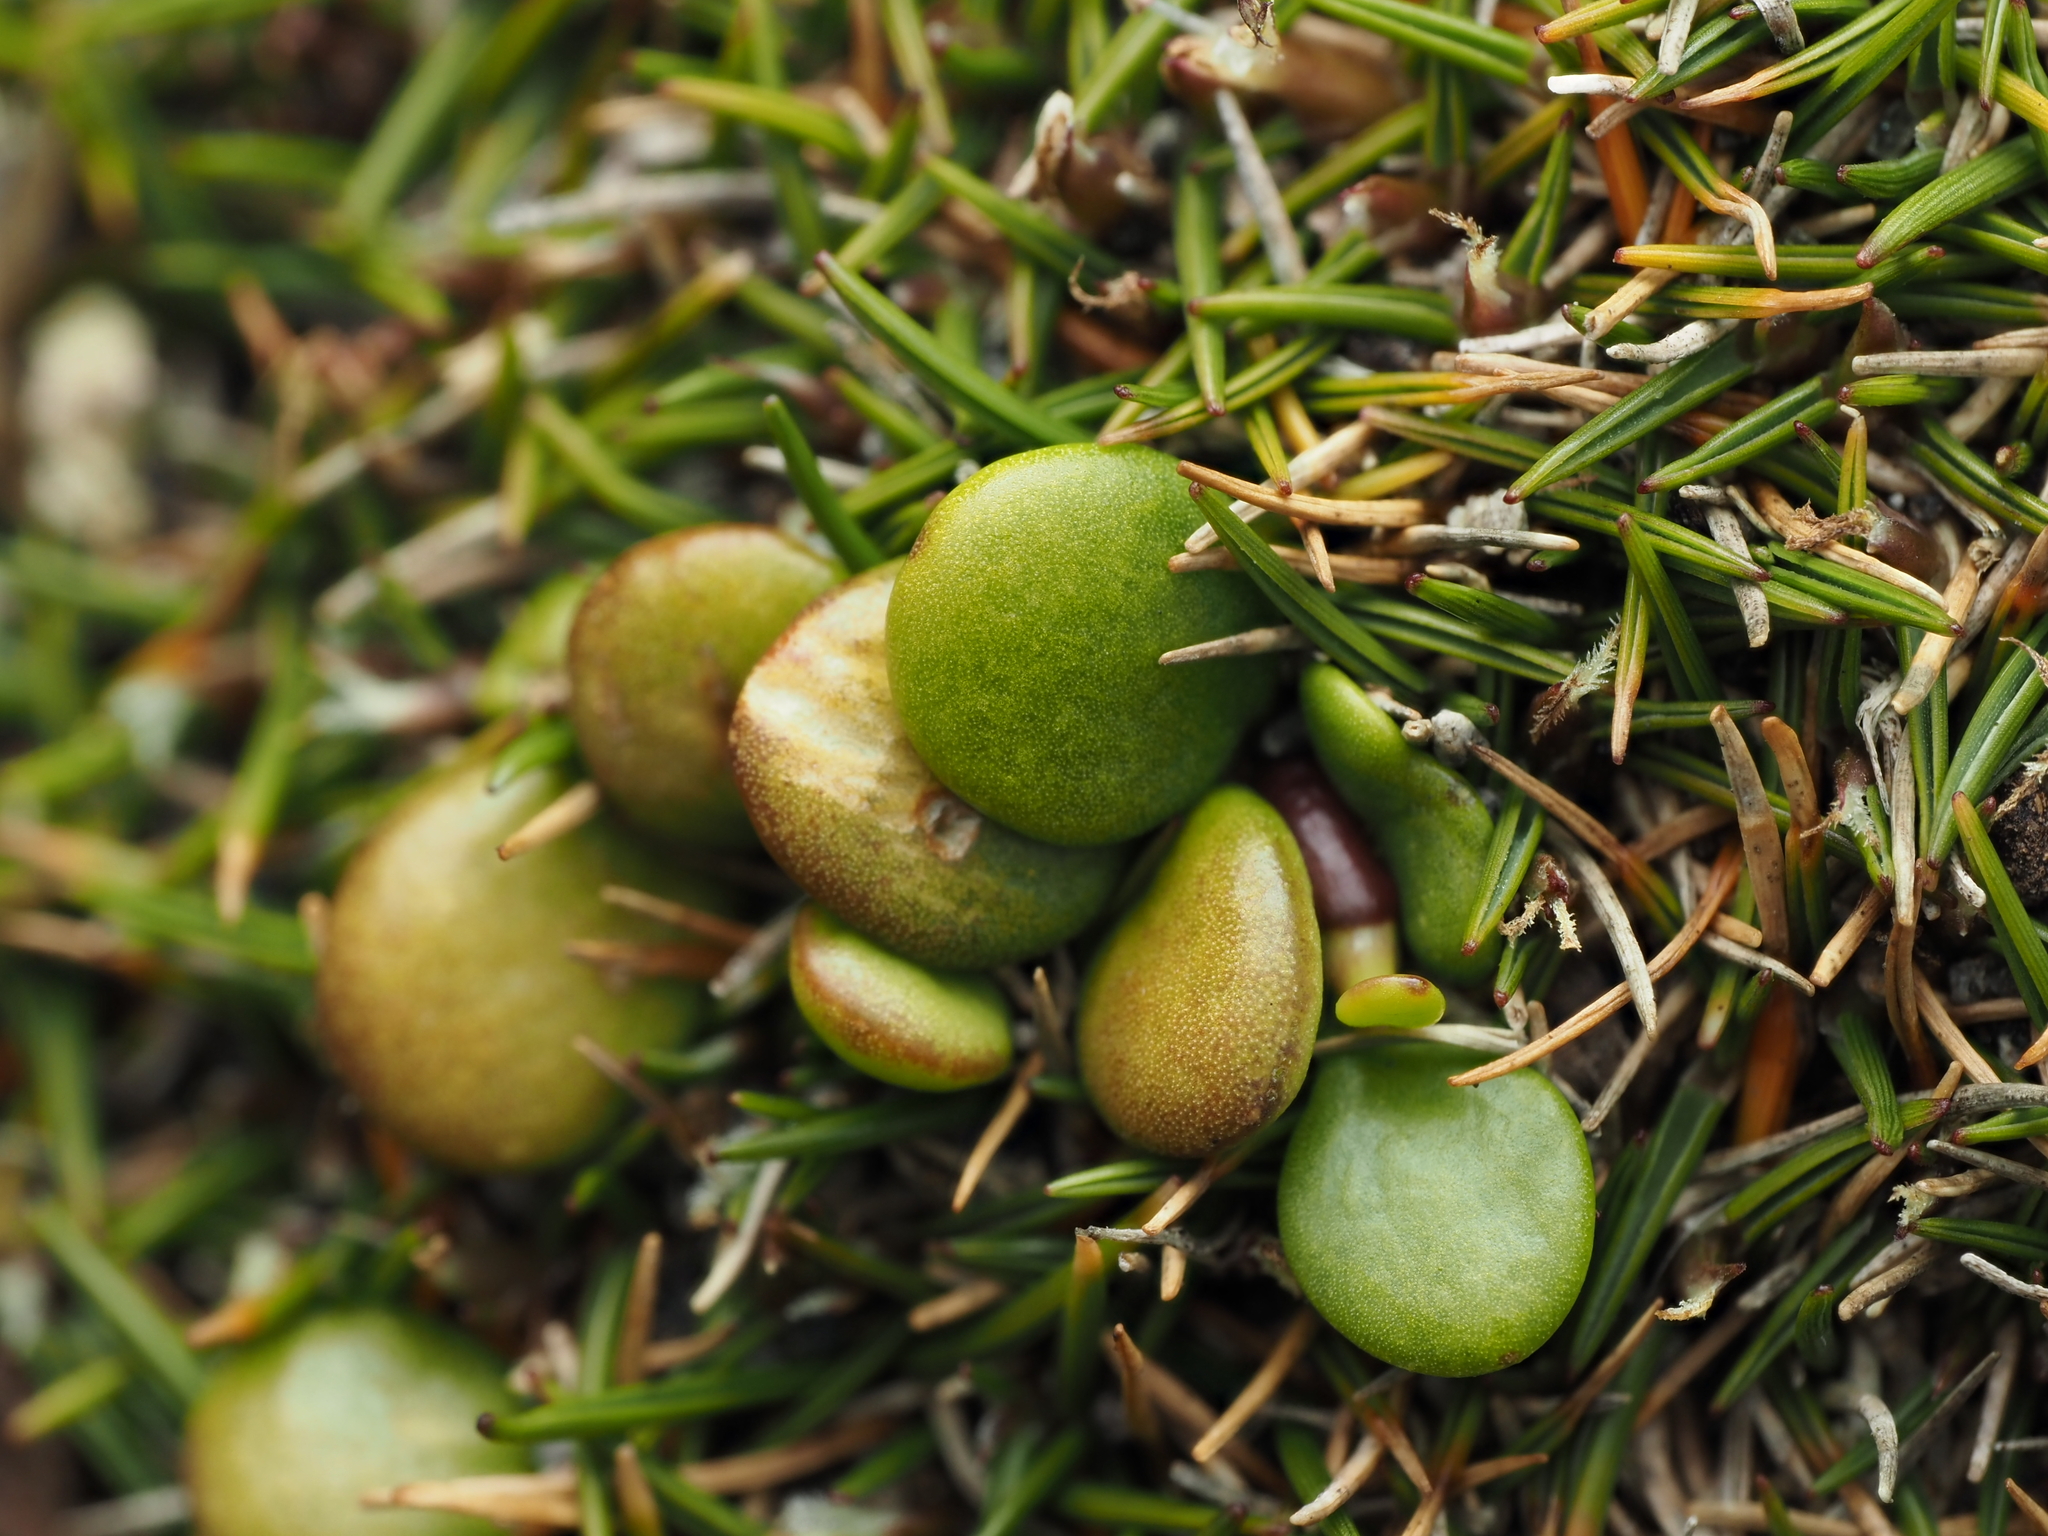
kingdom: Plantae
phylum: Tracheophyta
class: Magnoliopsida
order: Asterales
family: Goodeniaceae
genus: Goodenia
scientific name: Goodenia radicans
